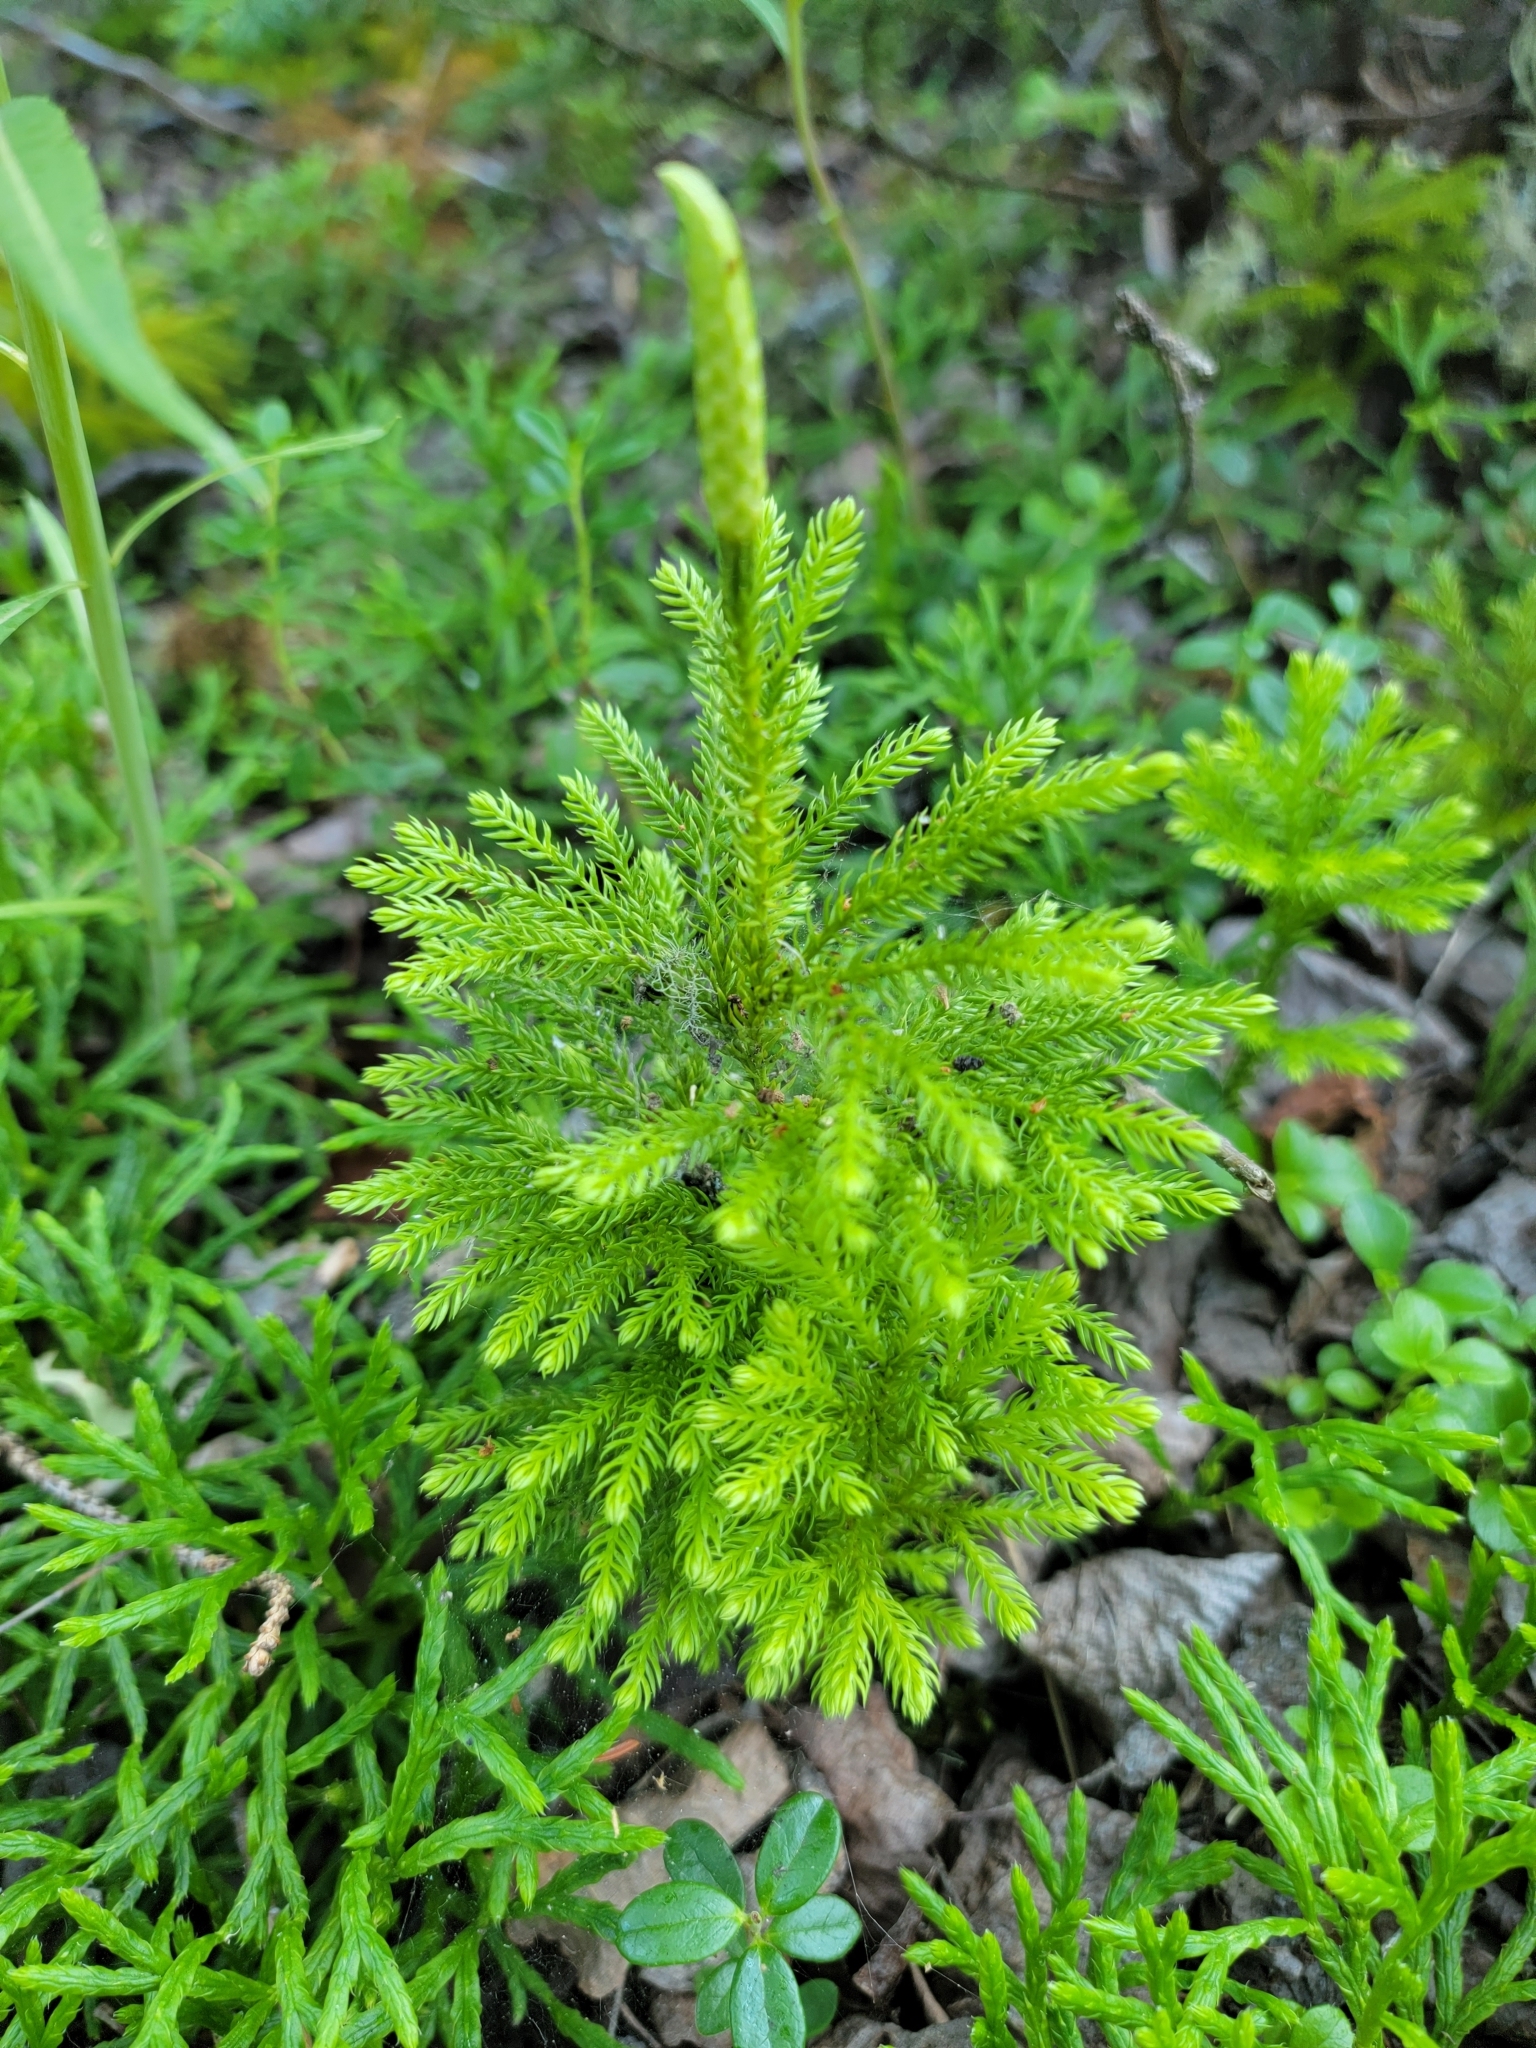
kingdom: Plantae
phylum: Tracheophyta
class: Lycopodiopsida
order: Lycopodiales
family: Lycopodiaceae
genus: Dendrolycopodium
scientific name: Dendrolycopodium dendroideum
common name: Northern tree-clubmoss
